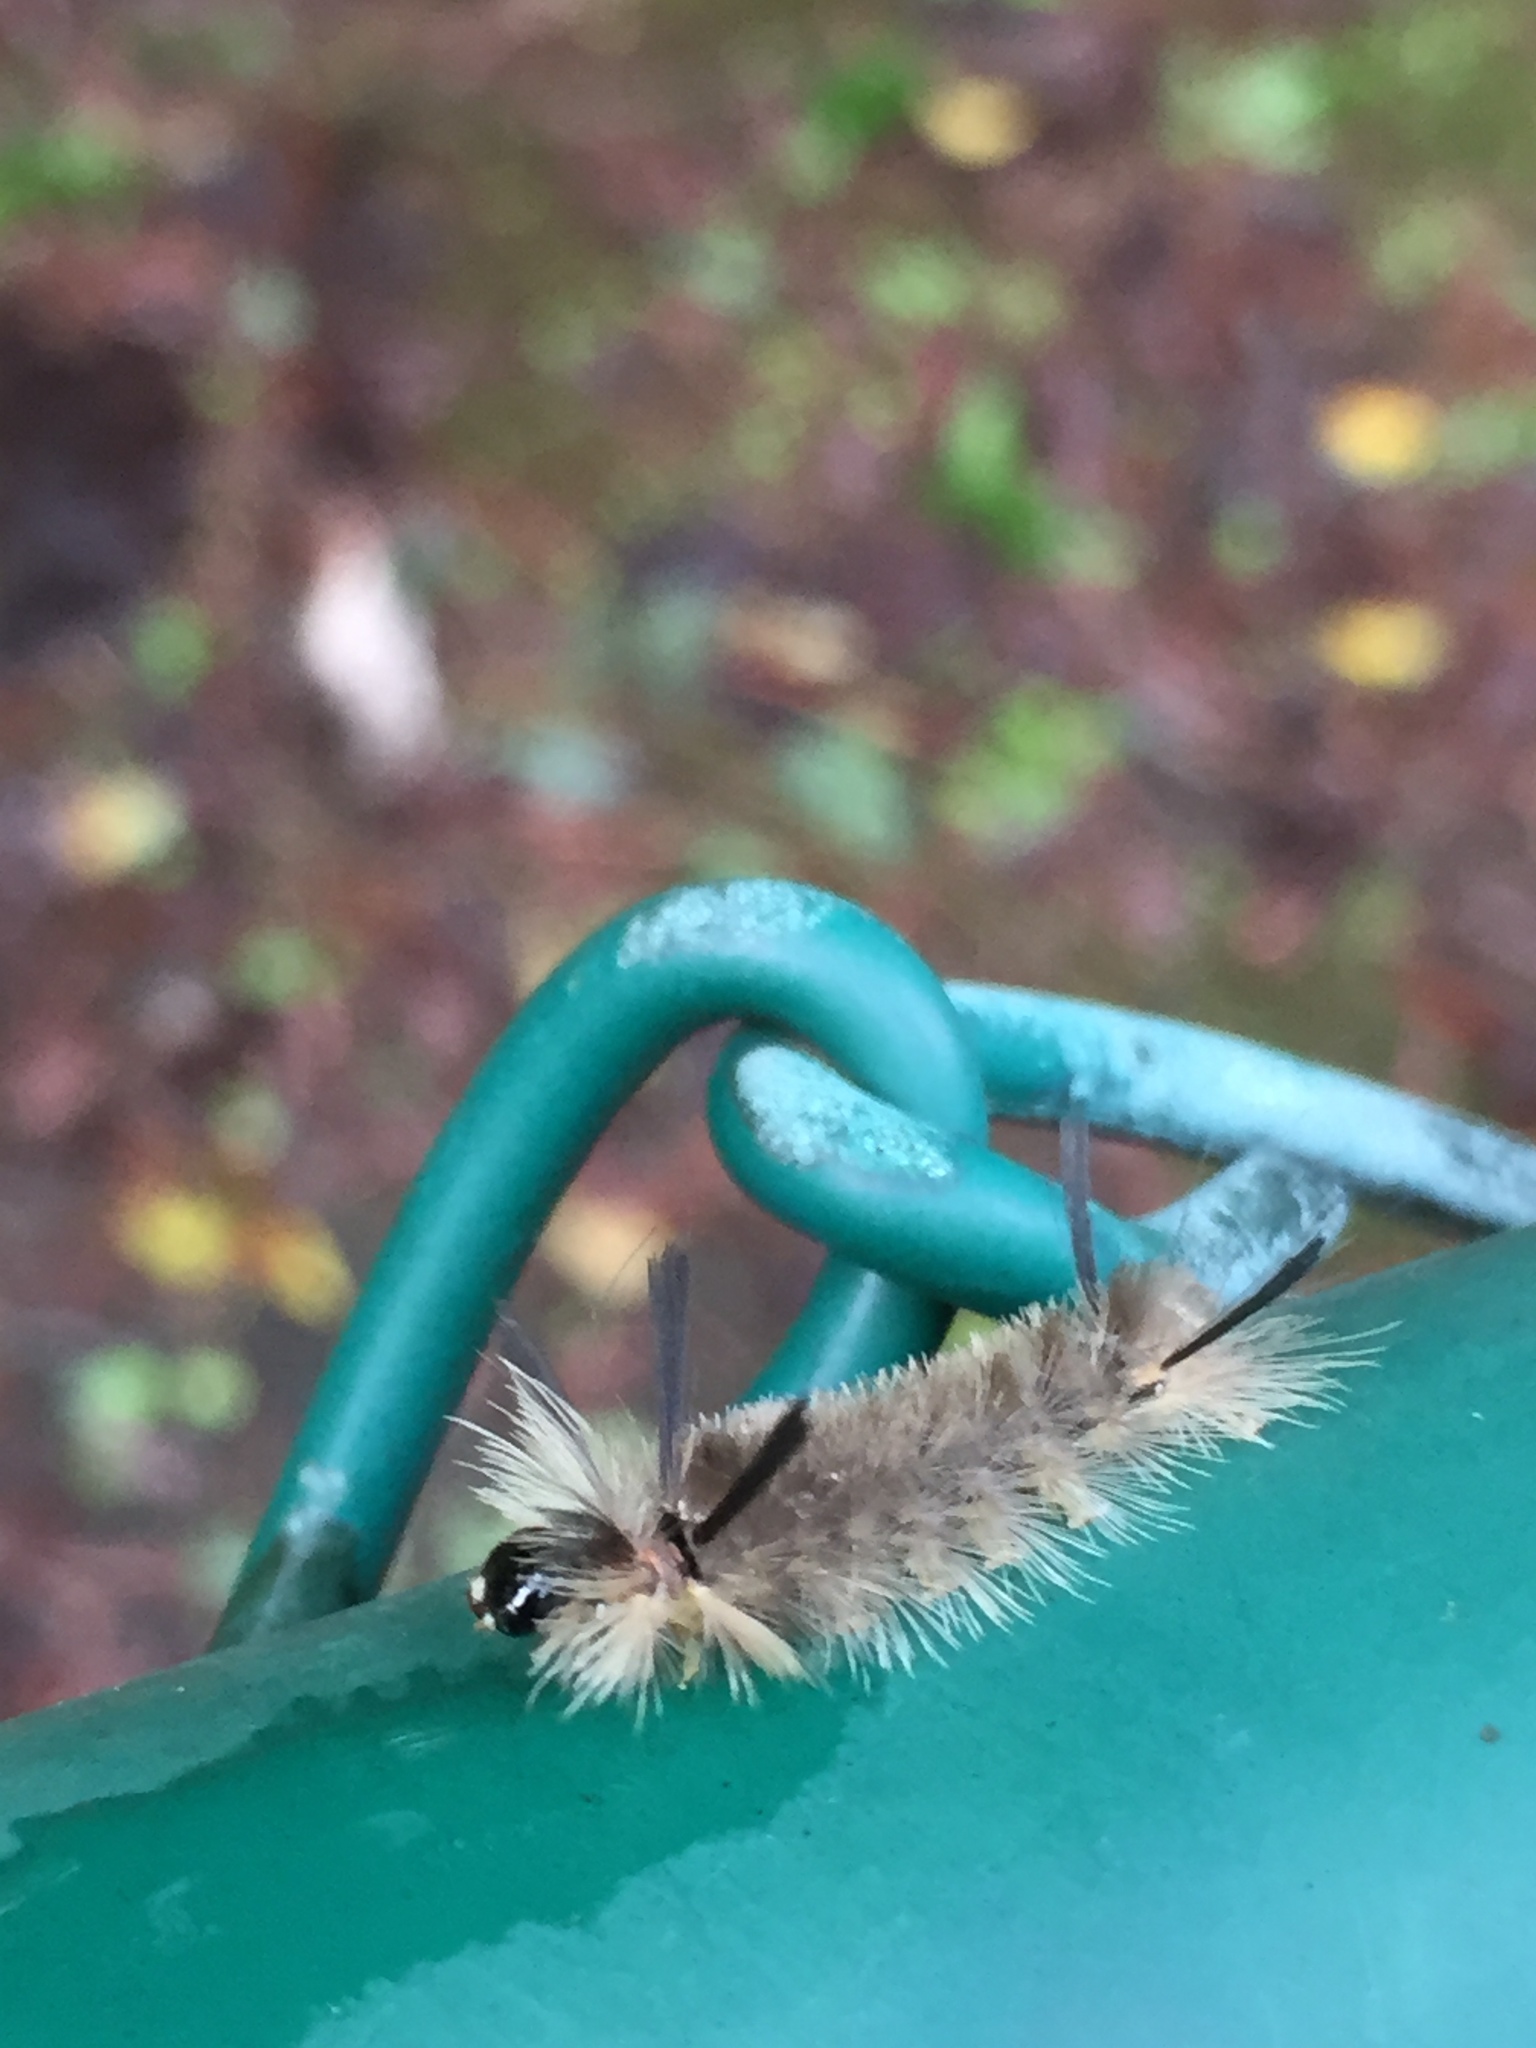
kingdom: Animalia
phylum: Arthropoda
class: Insecta
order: Lepidoptera
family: Erebidae
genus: Halysidota
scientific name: Halysidota tessellaris
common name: Banded tussock moth
